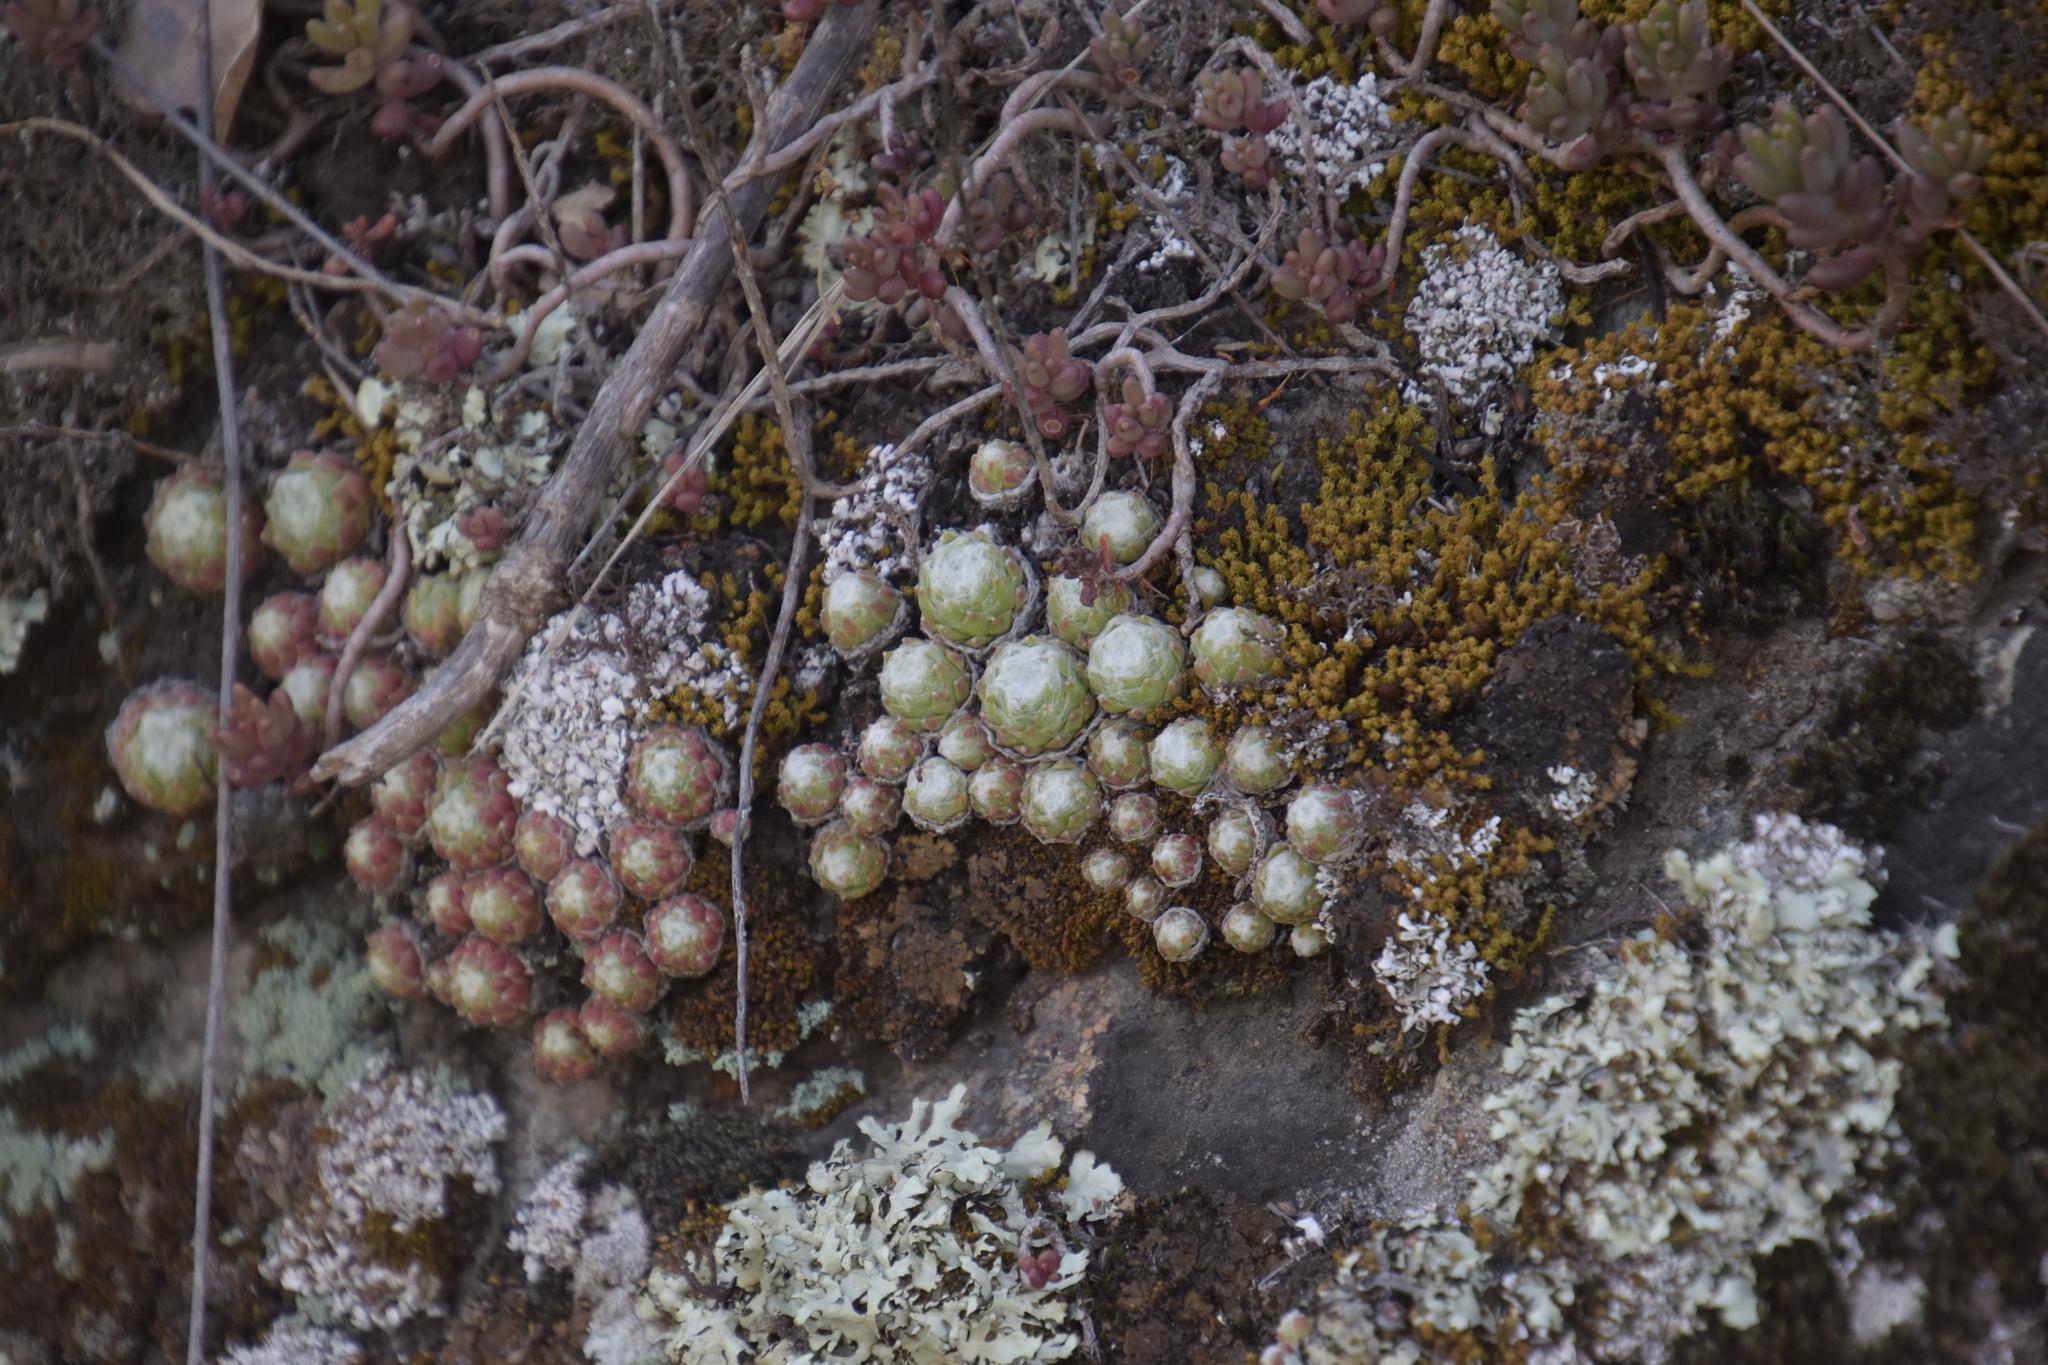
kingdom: Plantae
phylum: Tracheophyta
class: Magnoliopsida
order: Saxifragales
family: Crassulaceae
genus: Sempervivum
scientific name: Sempervivum arachnoideum
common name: Cobweb house-leek
